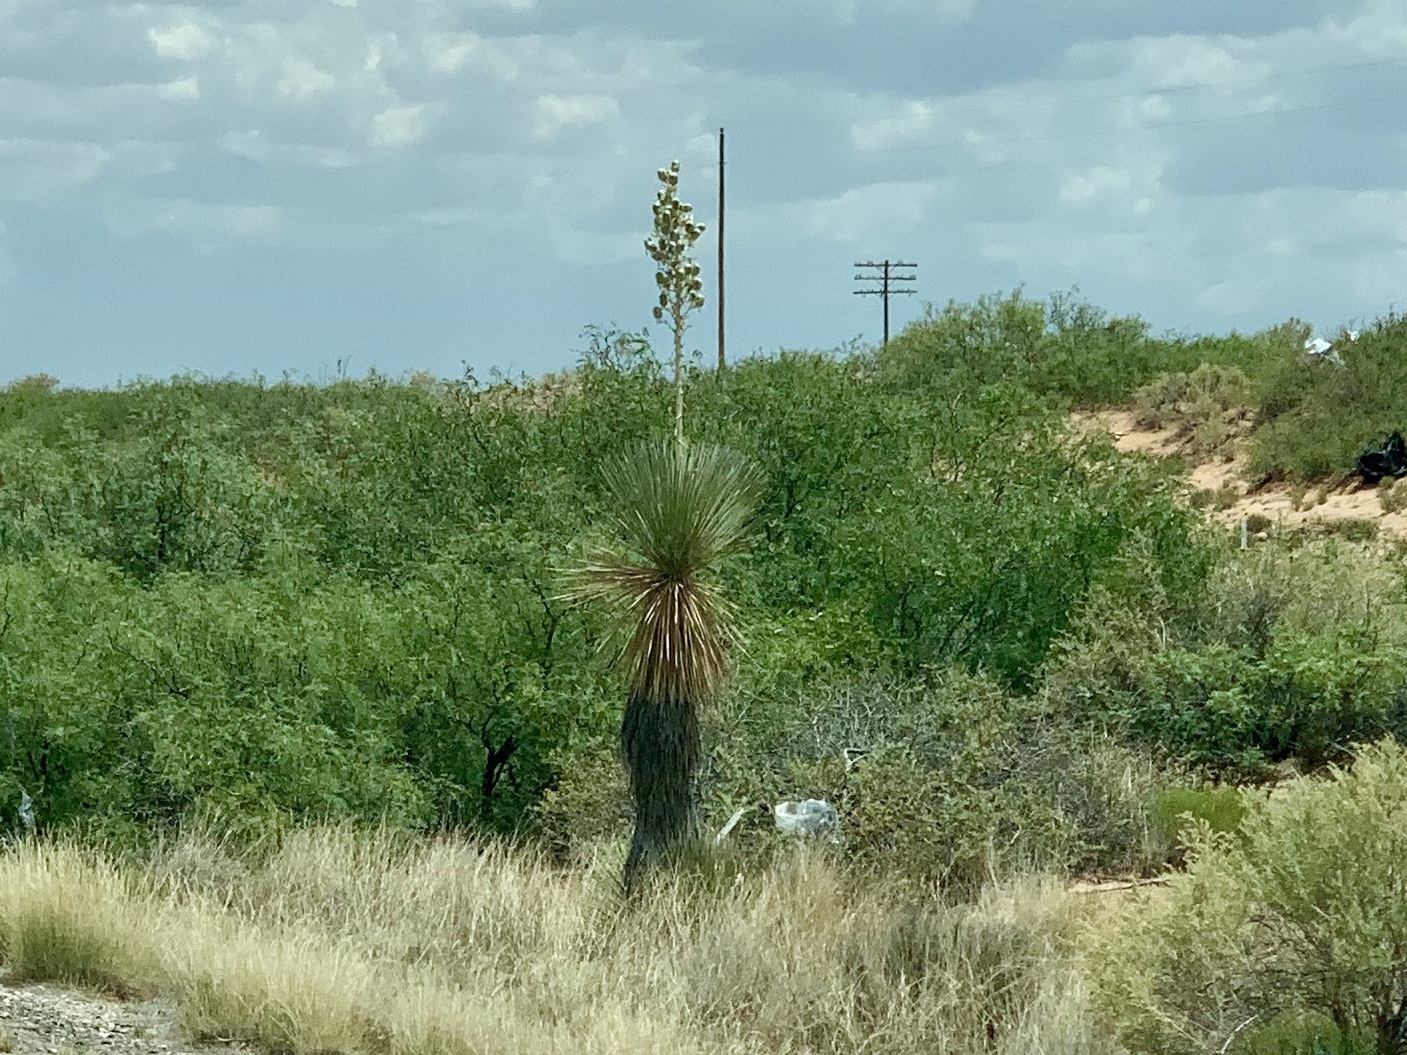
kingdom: Plantae
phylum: Tracheophyta
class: Liliopsida
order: Asparagales
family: Asparagaceae
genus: Yucca
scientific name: Yucca elata
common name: Palmella
